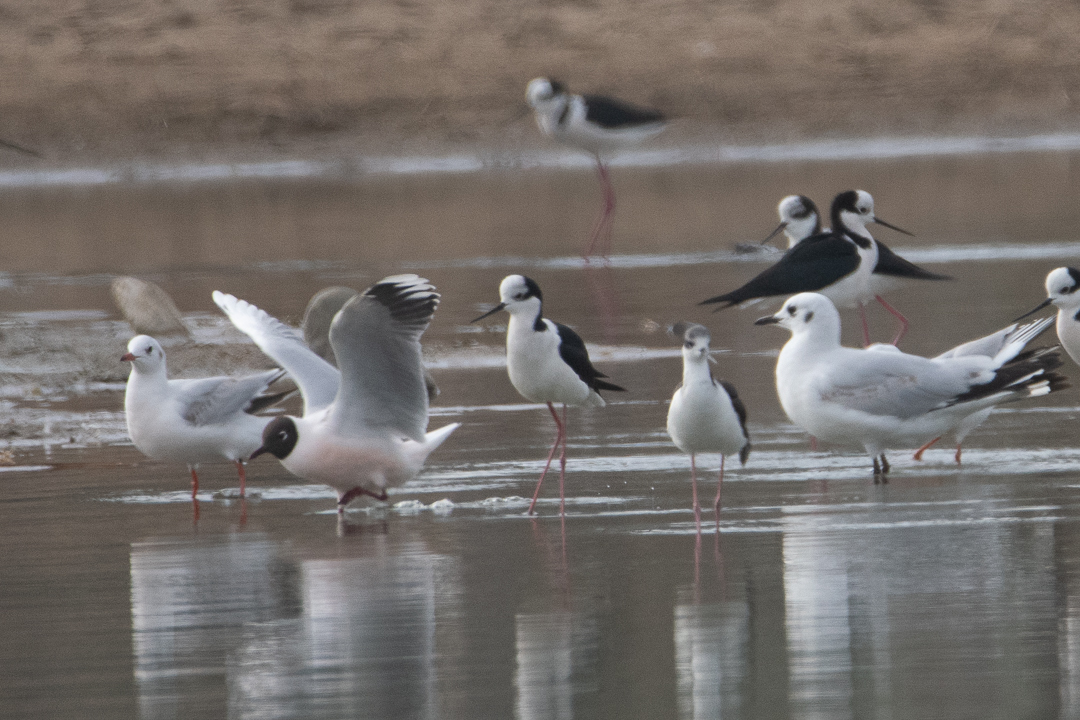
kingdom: Animalia
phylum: Chordata
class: Aves
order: Charadriiformes
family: Laridae
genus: Chroicocephalus
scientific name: Chroicocephalus maculipennis
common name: Brown-hooded gull
